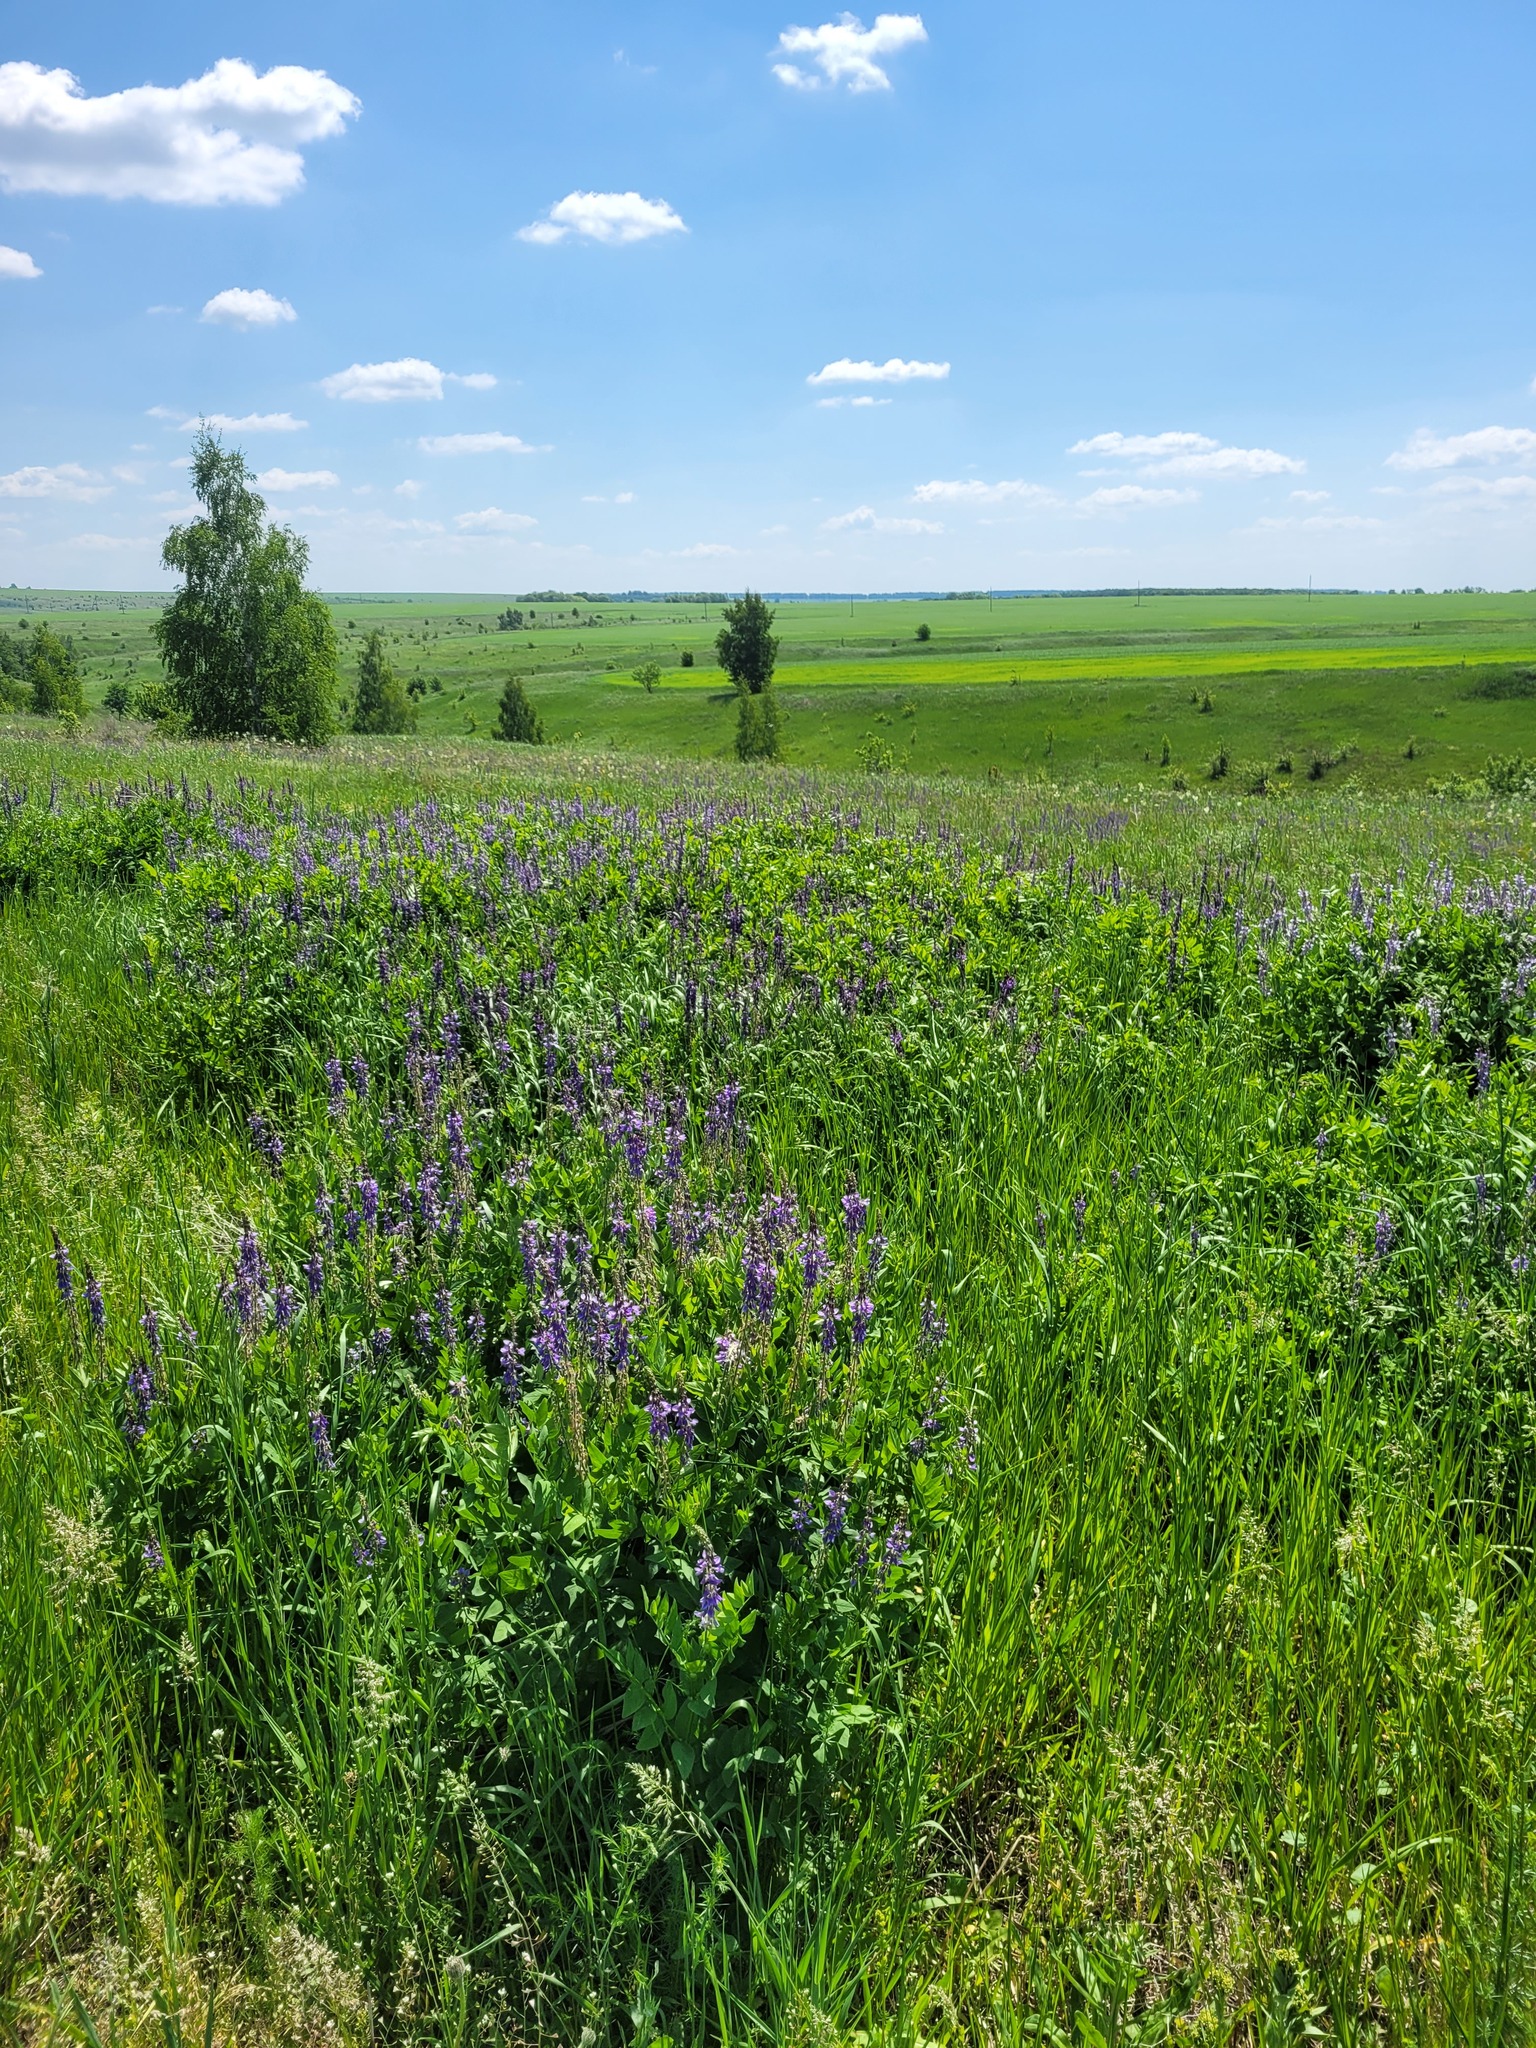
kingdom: Plantae
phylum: Tracheophyta
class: Magnoliopsida
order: Fabales
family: Fabaceae
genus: Galega
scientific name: Galega orientalis
